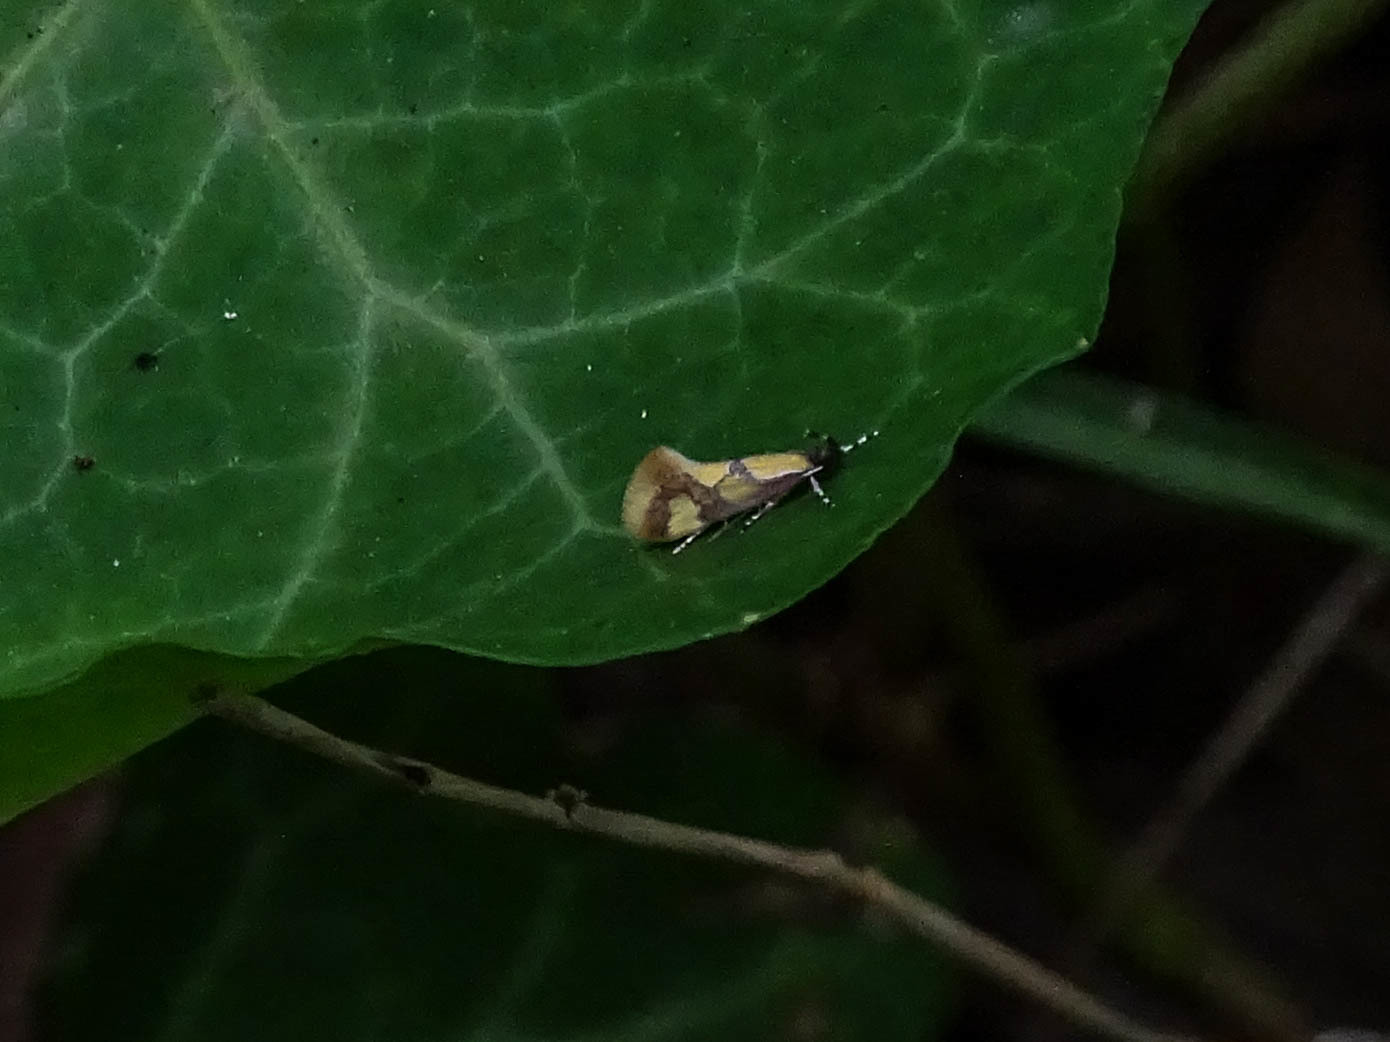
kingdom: Animalia
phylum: Arthropoda
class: Insecta
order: Lepidoptera
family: Oecophoridae
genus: Fabiola
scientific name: Fabiola icterinella
